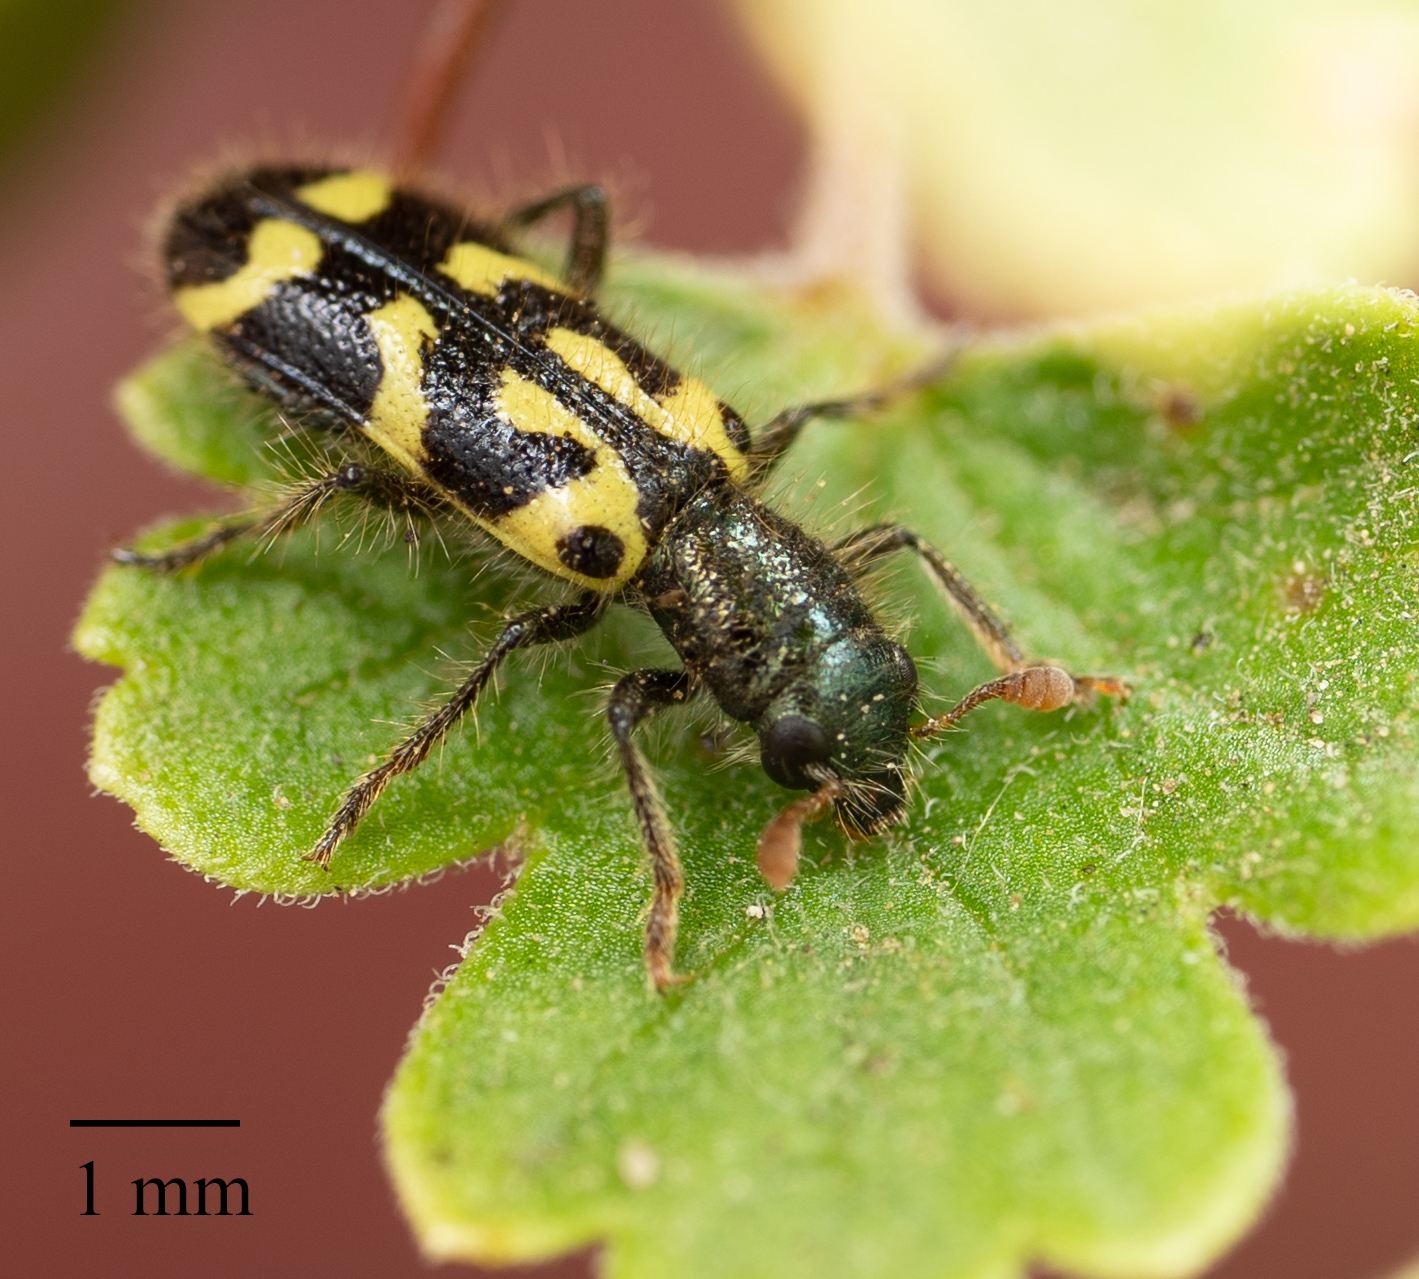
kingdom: Animalia
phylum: Arthropoda
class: Insecta
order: Coleoptera
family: Cleridae
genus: Trichodes
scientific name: Trichodes ornatus
